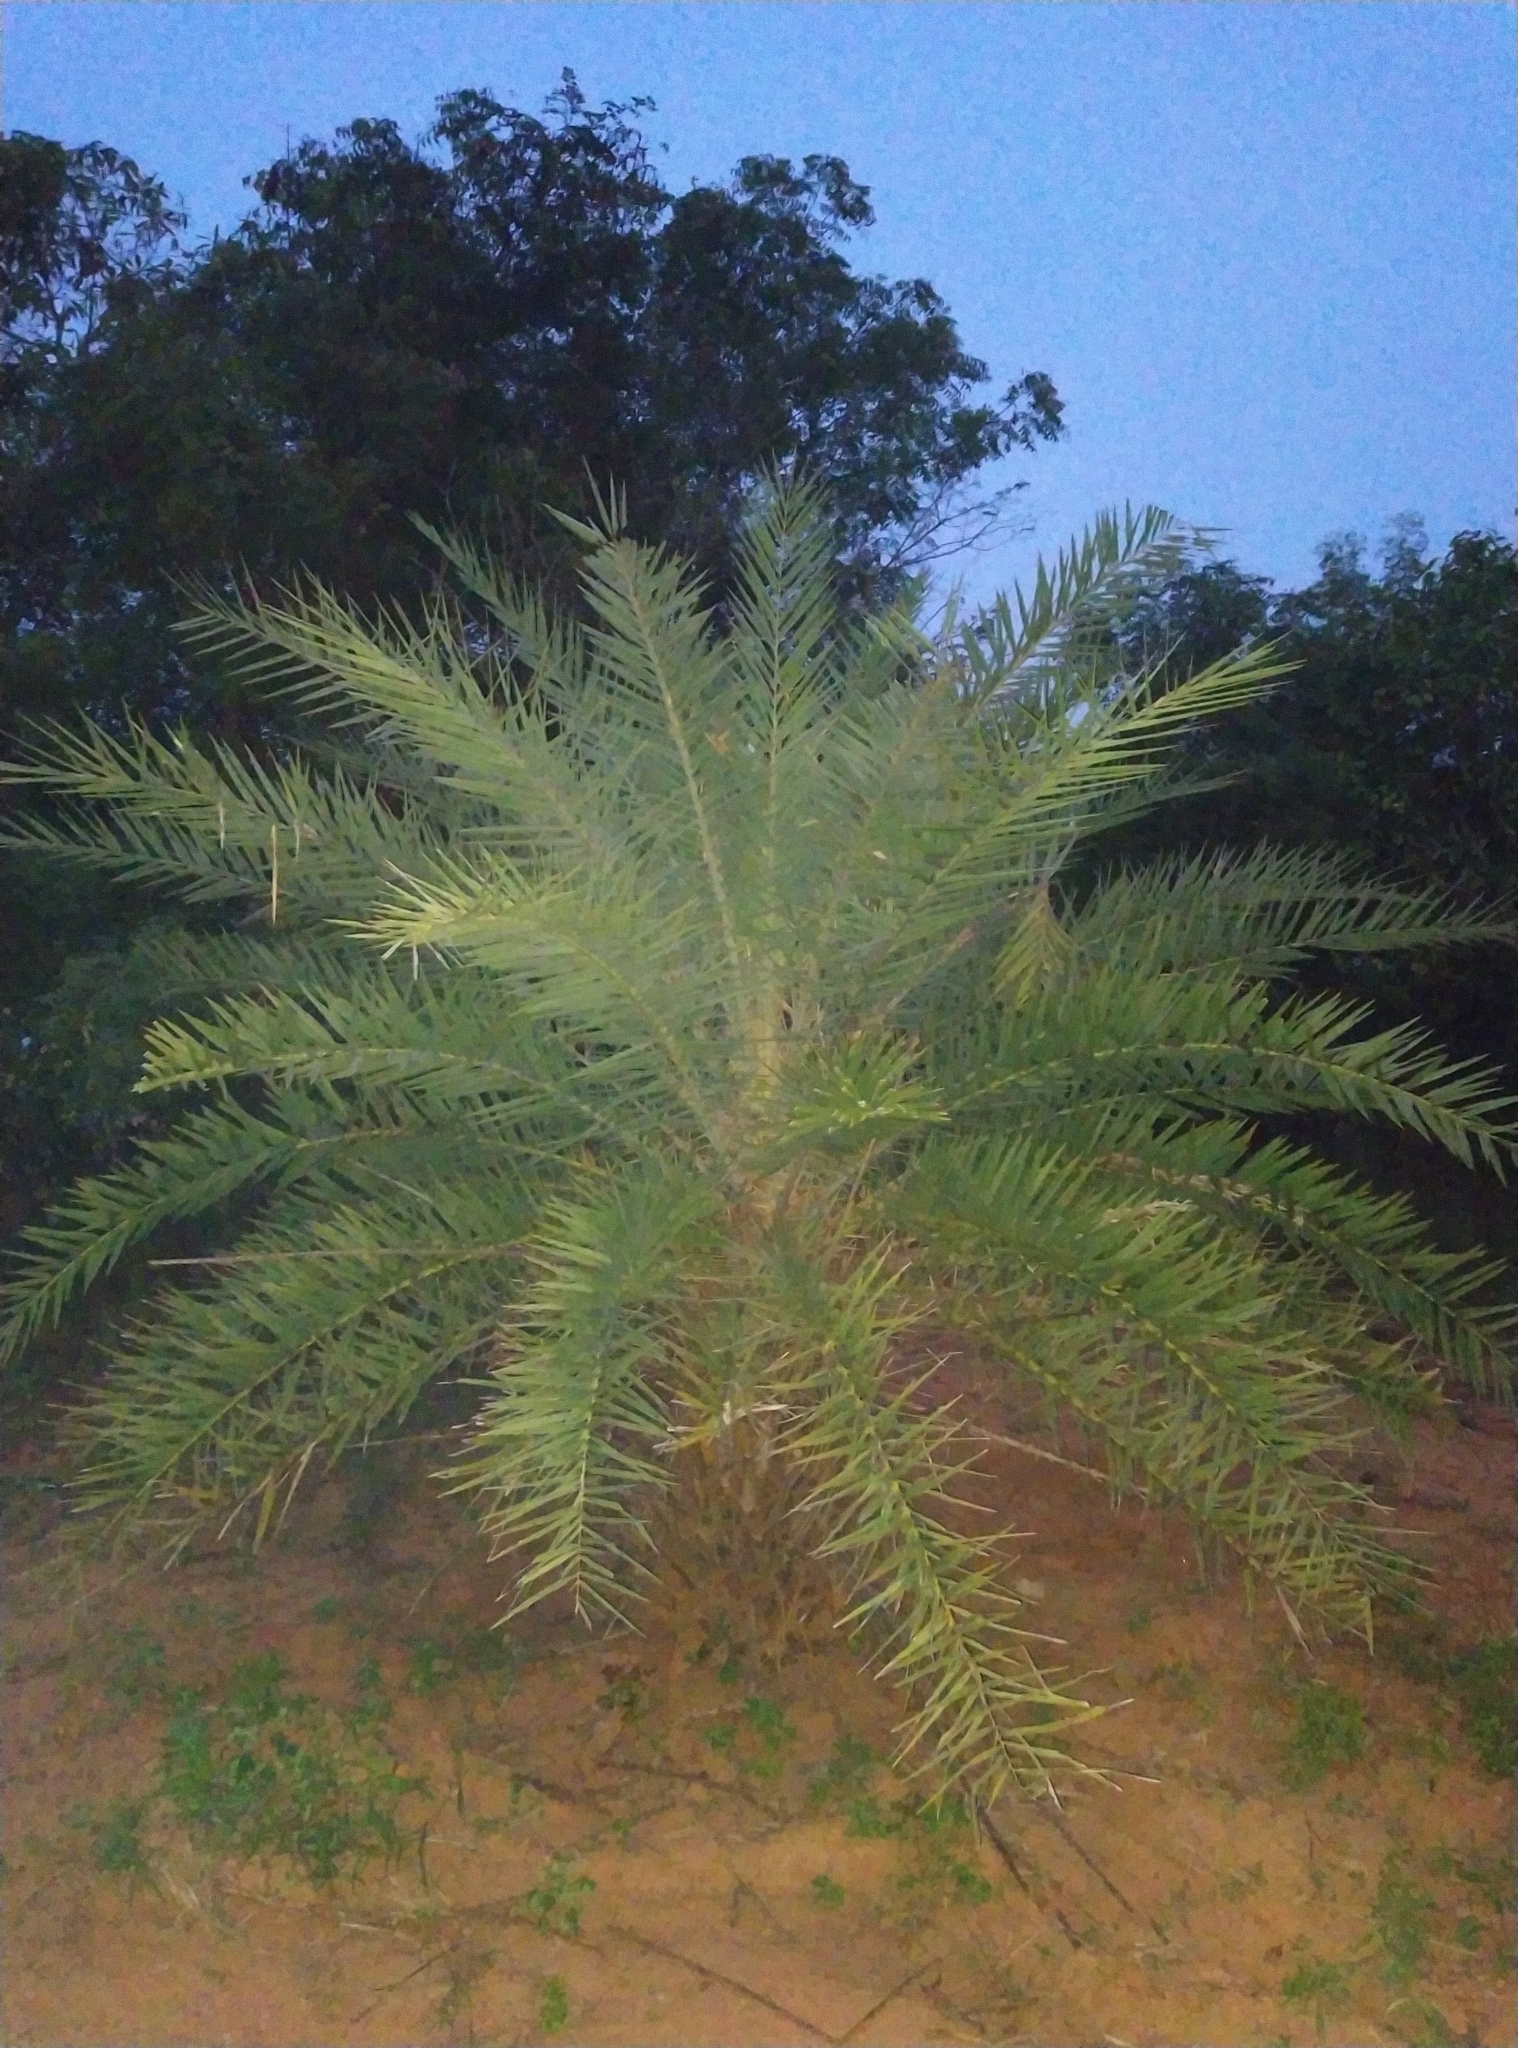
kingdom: Plantae
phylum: Tracheophyta
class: Liliopsida
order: Arecales
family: Arecaceae
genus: Phoenix
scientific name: Phoenix loureiroi
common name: Loureiro's palm
